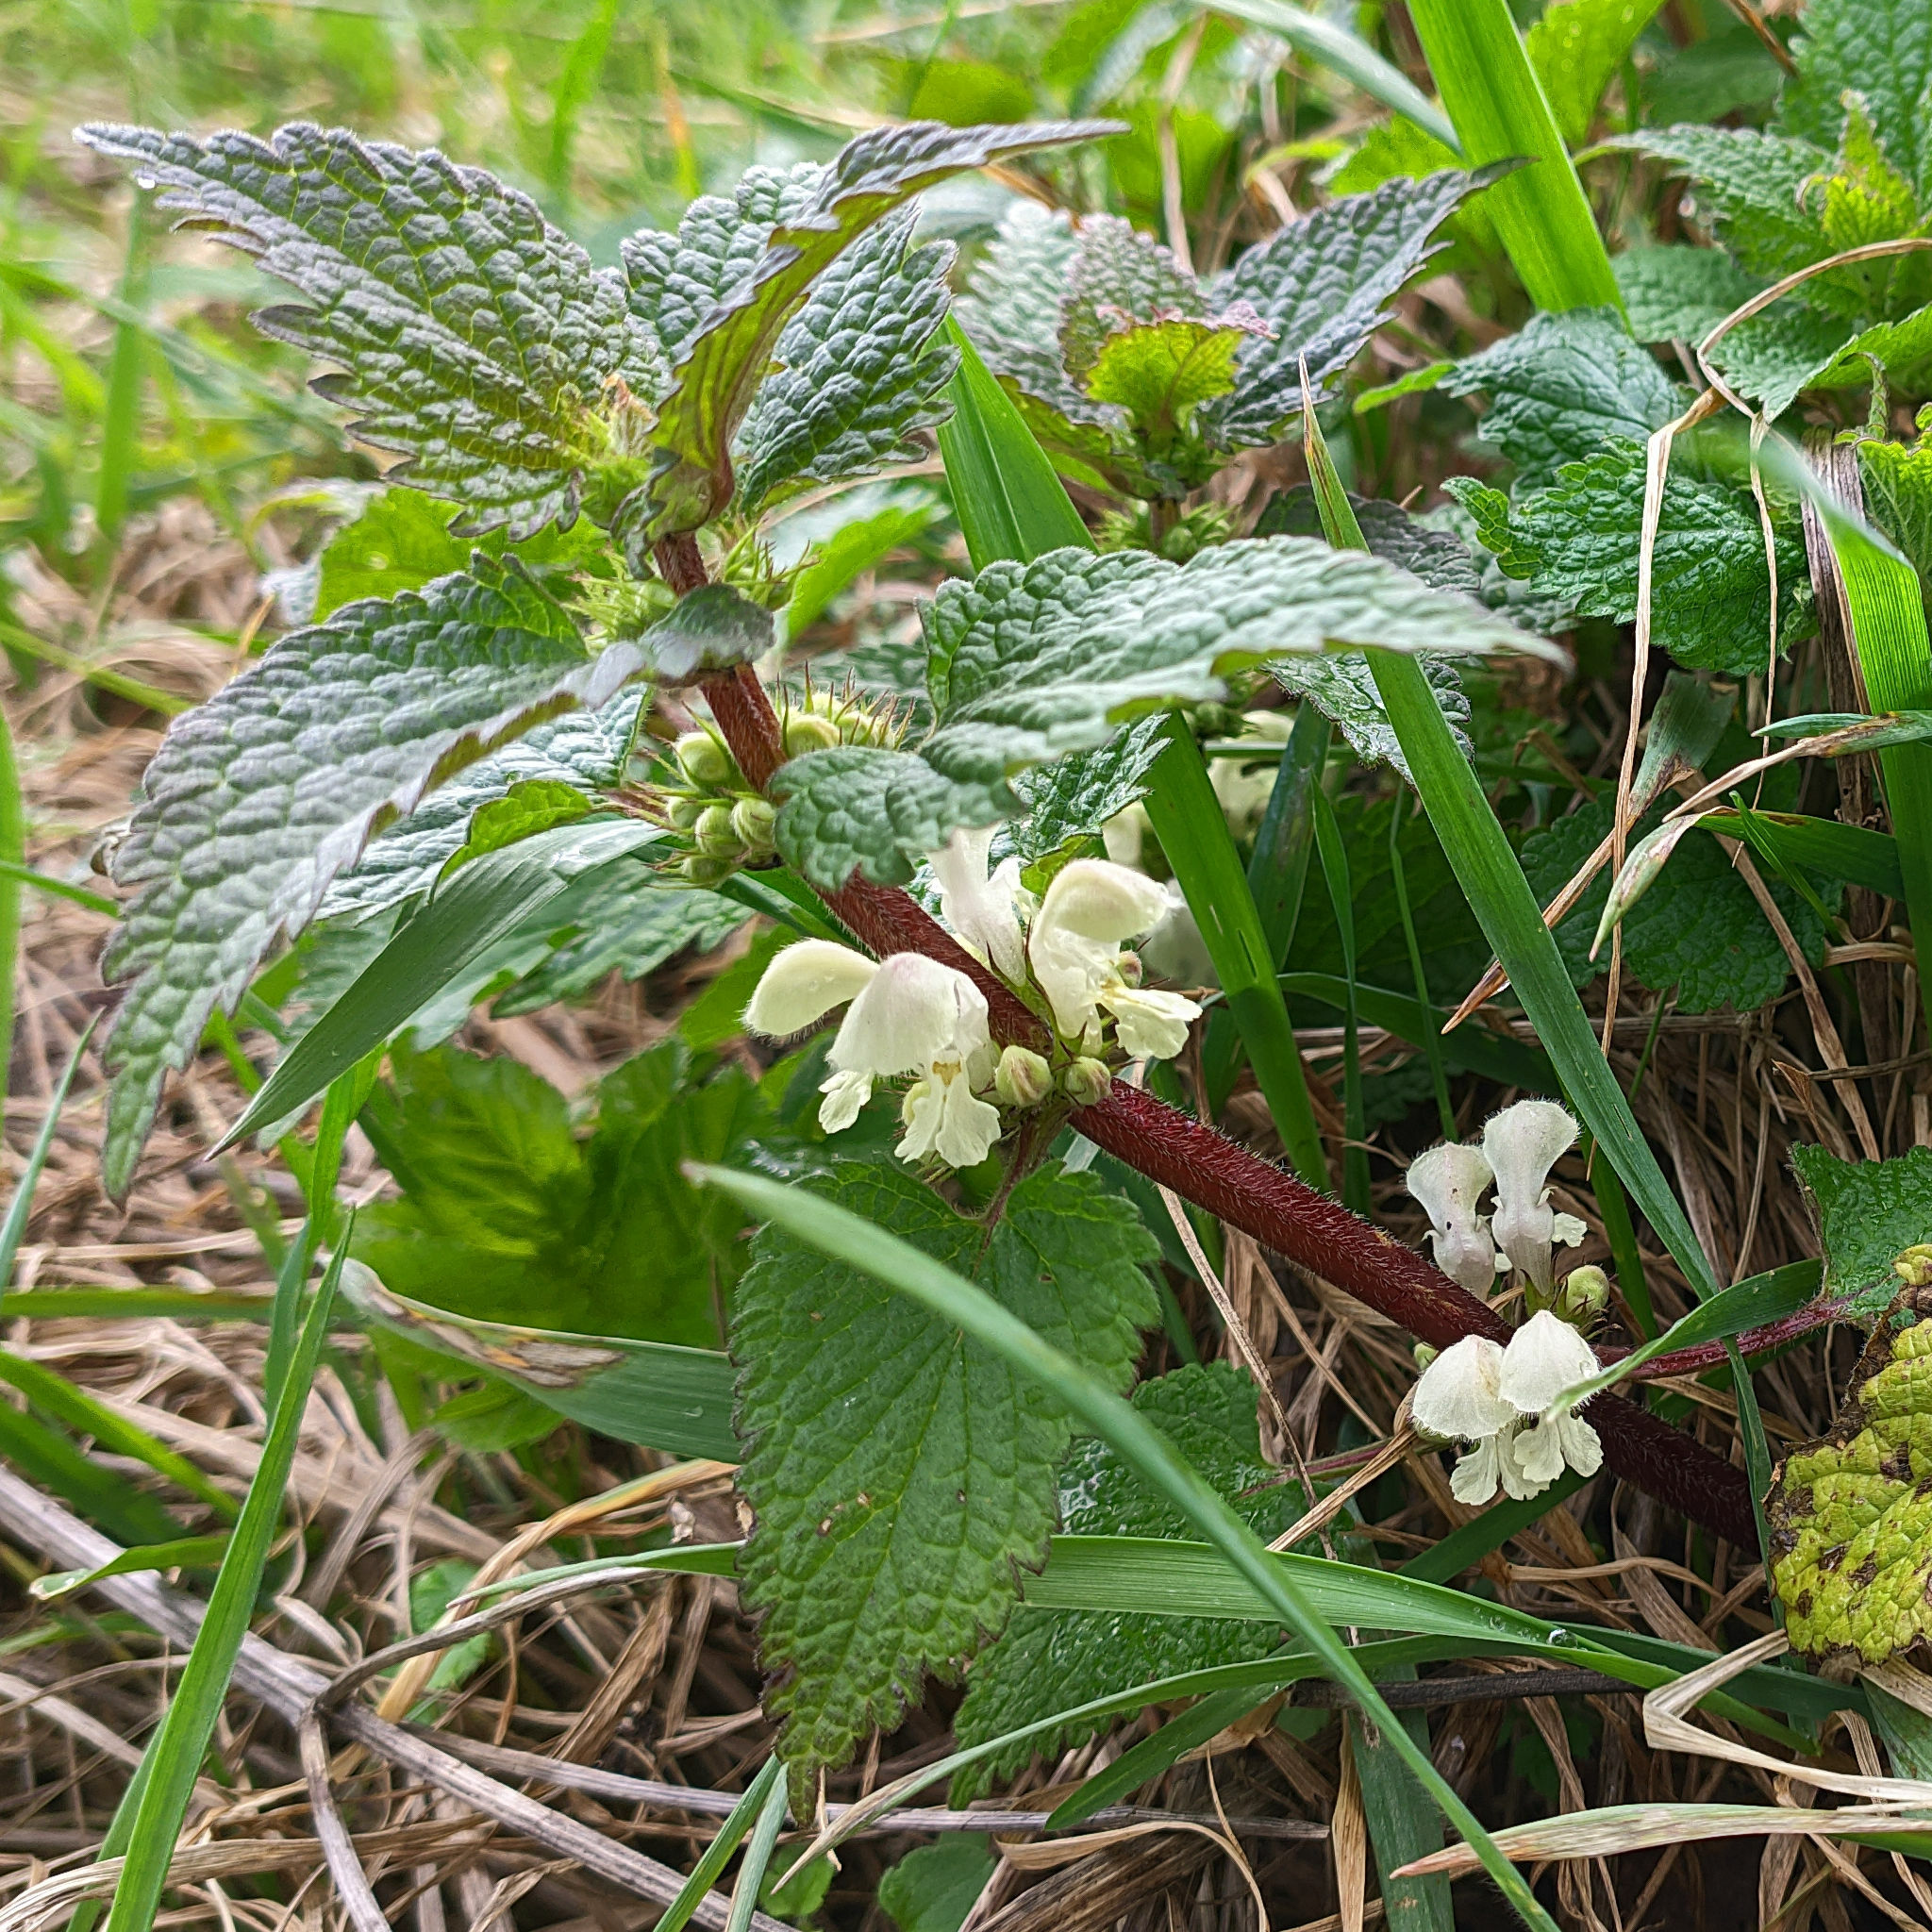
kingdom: Plantae
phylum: Tracheophyta
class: Magnoliopsida
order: Lamiales
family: Lamiaceae
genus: Lamium
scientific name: Lamium album
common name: White dead-nettle
